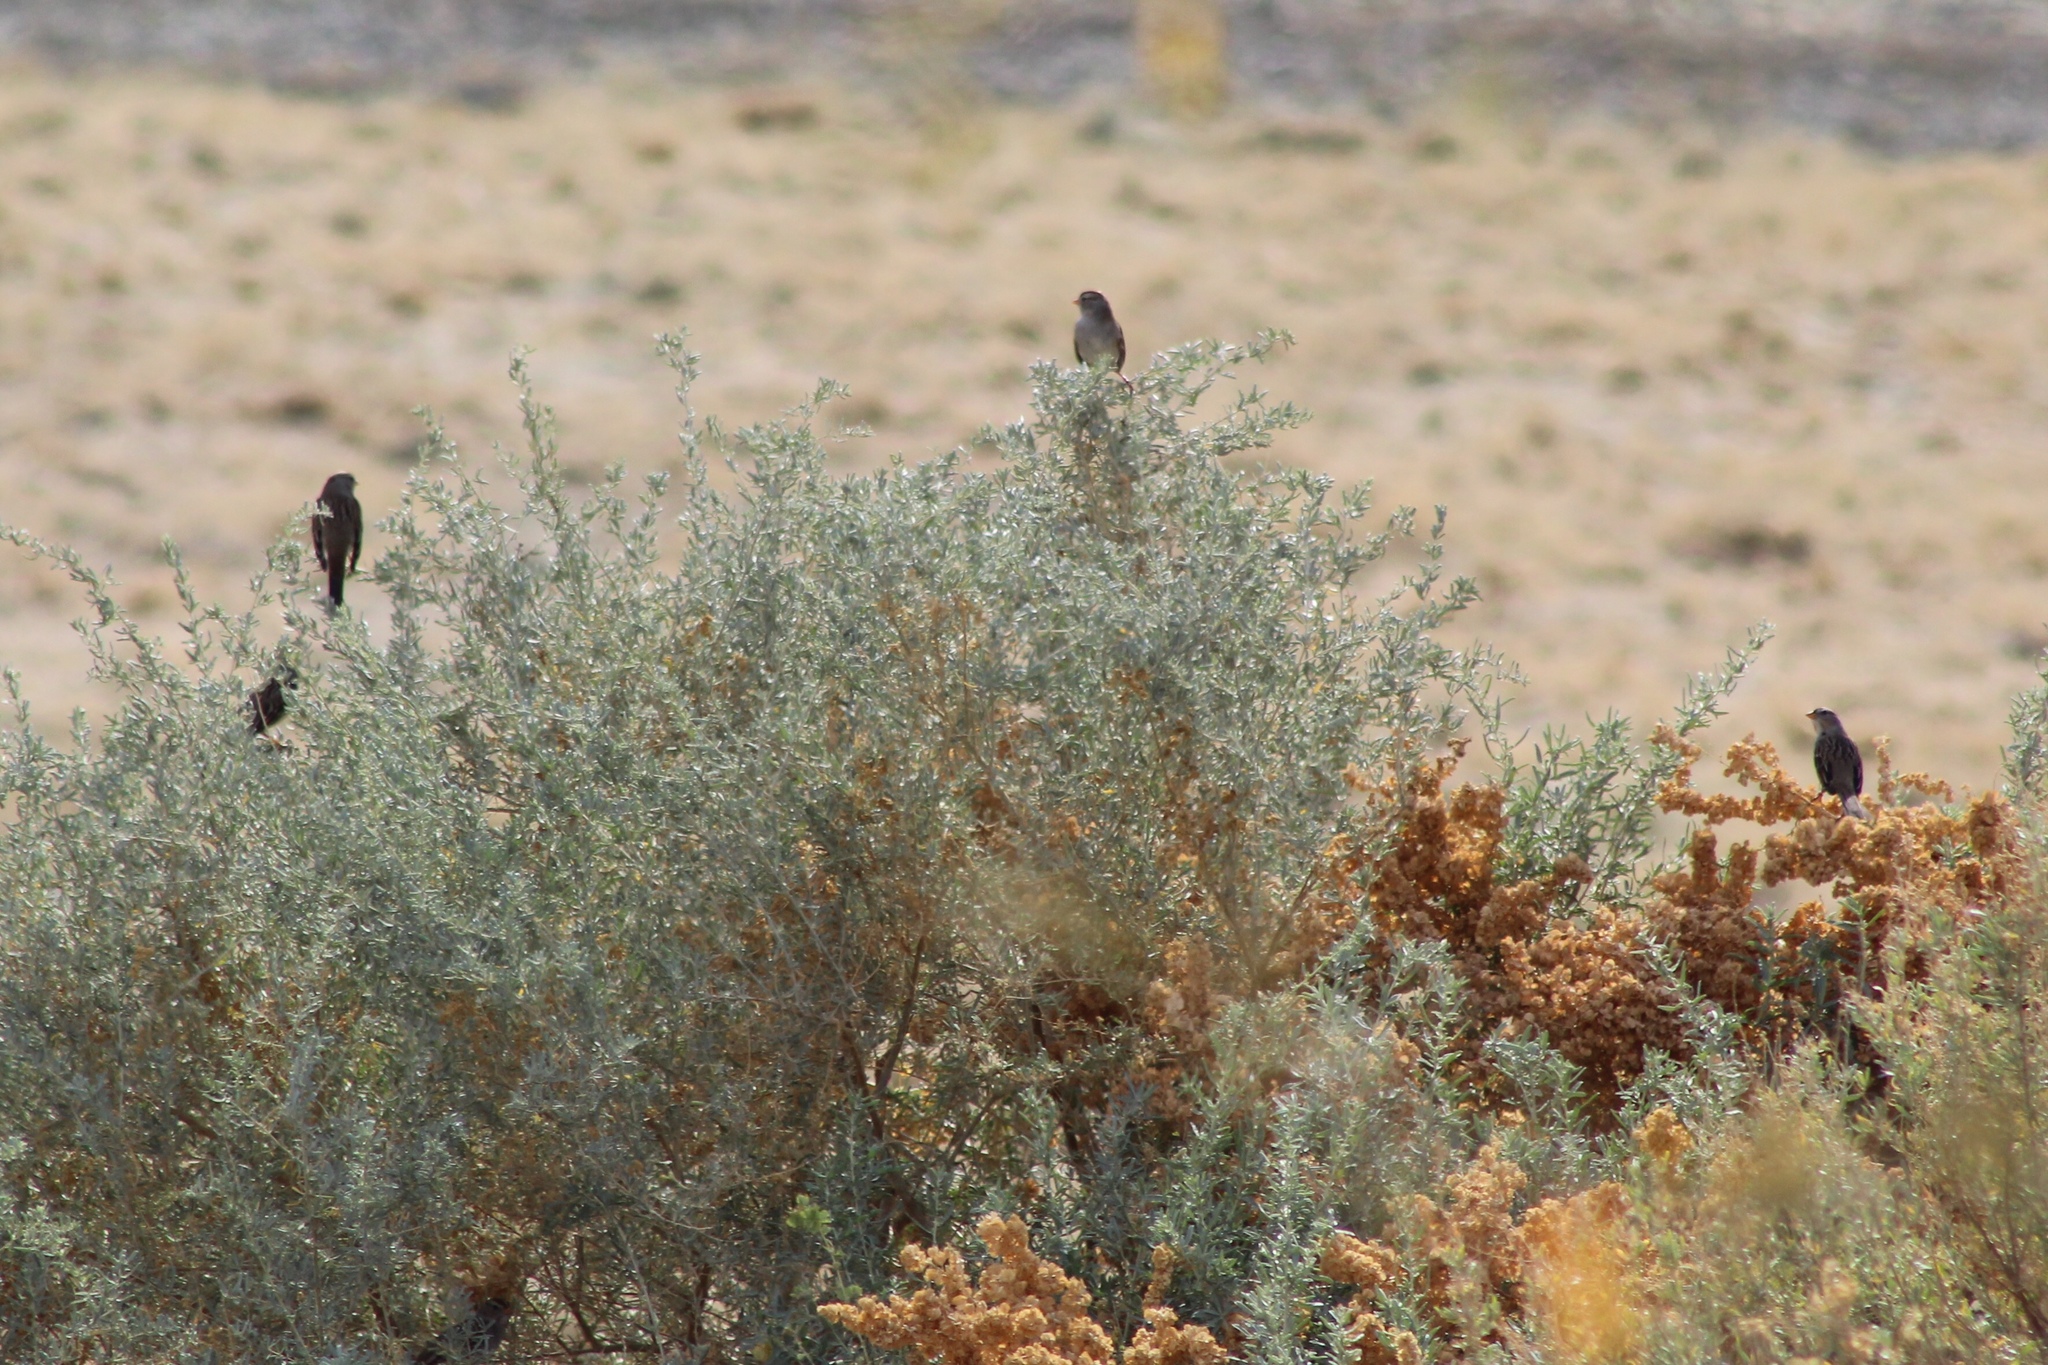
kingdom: Animalia
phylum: Chordata
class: Aves
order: Passeriformes
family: Passerellidae
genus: Zonotrichia
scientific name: Zonotrichia leucophrys
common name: White-crowned sparrow
